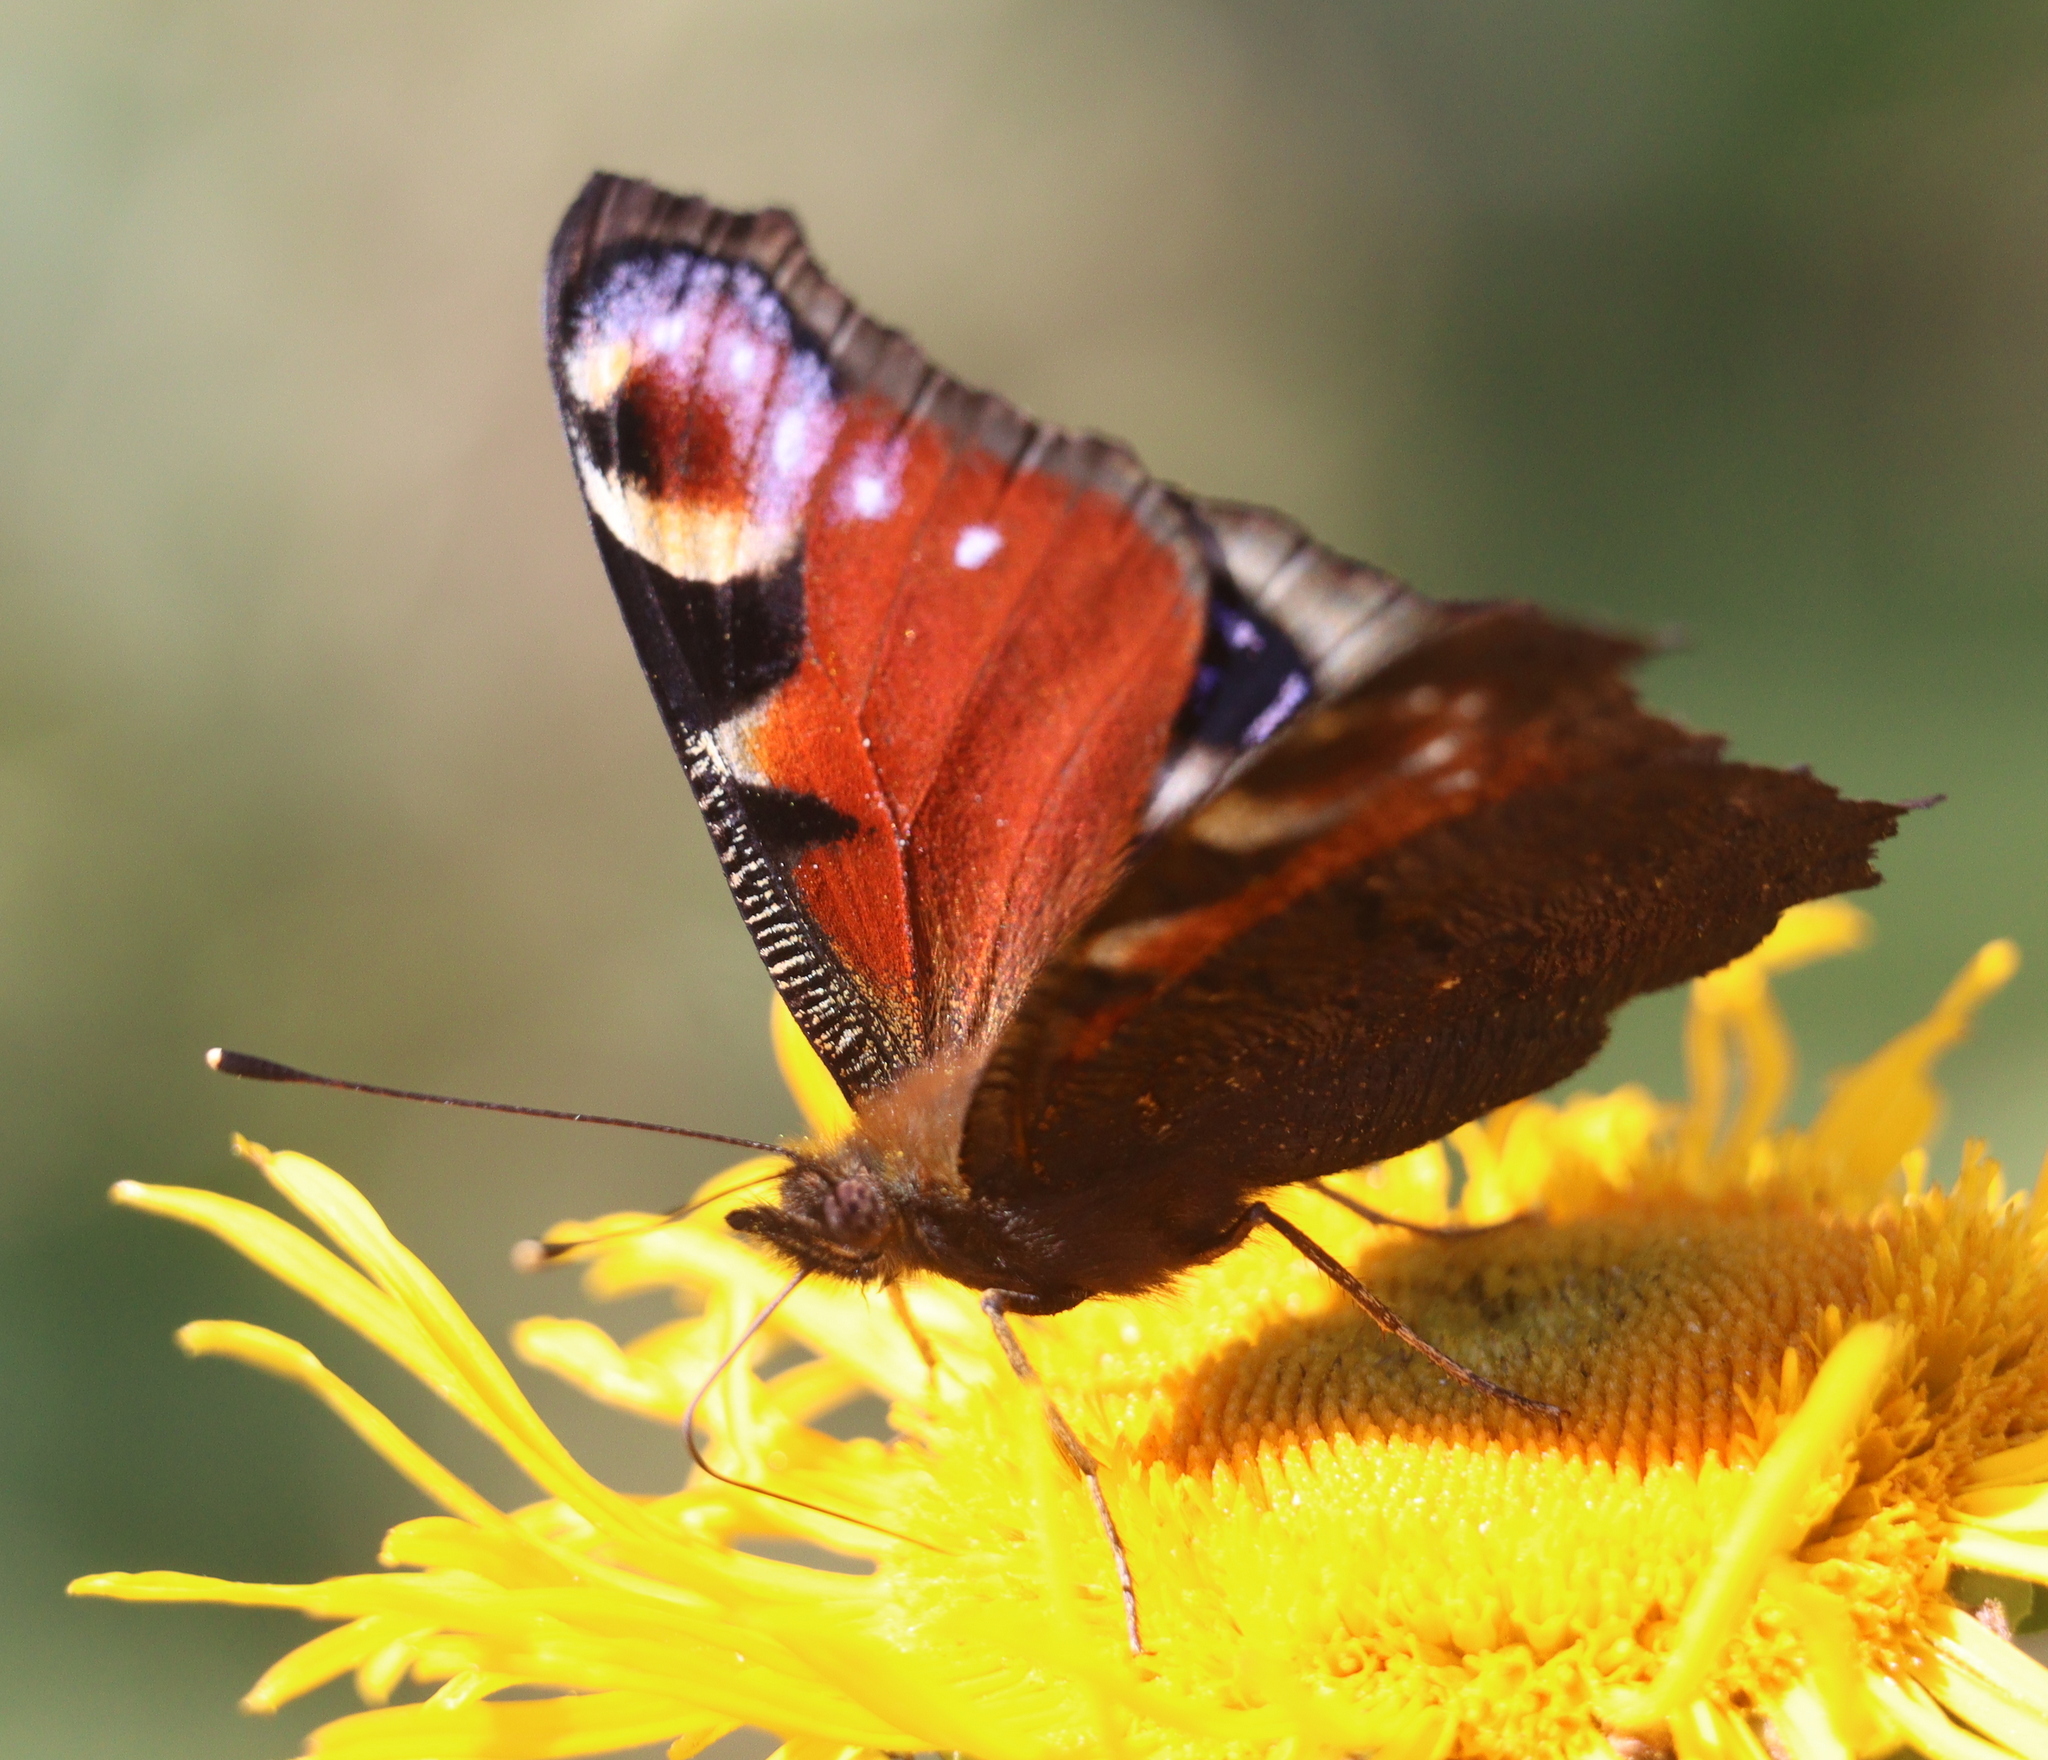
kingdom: Animalia
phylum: Arthropoda
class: Insecta
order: Lepidoptera
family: Nymphalidae
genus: Aglais
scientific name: Aglais io
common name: Peacock
